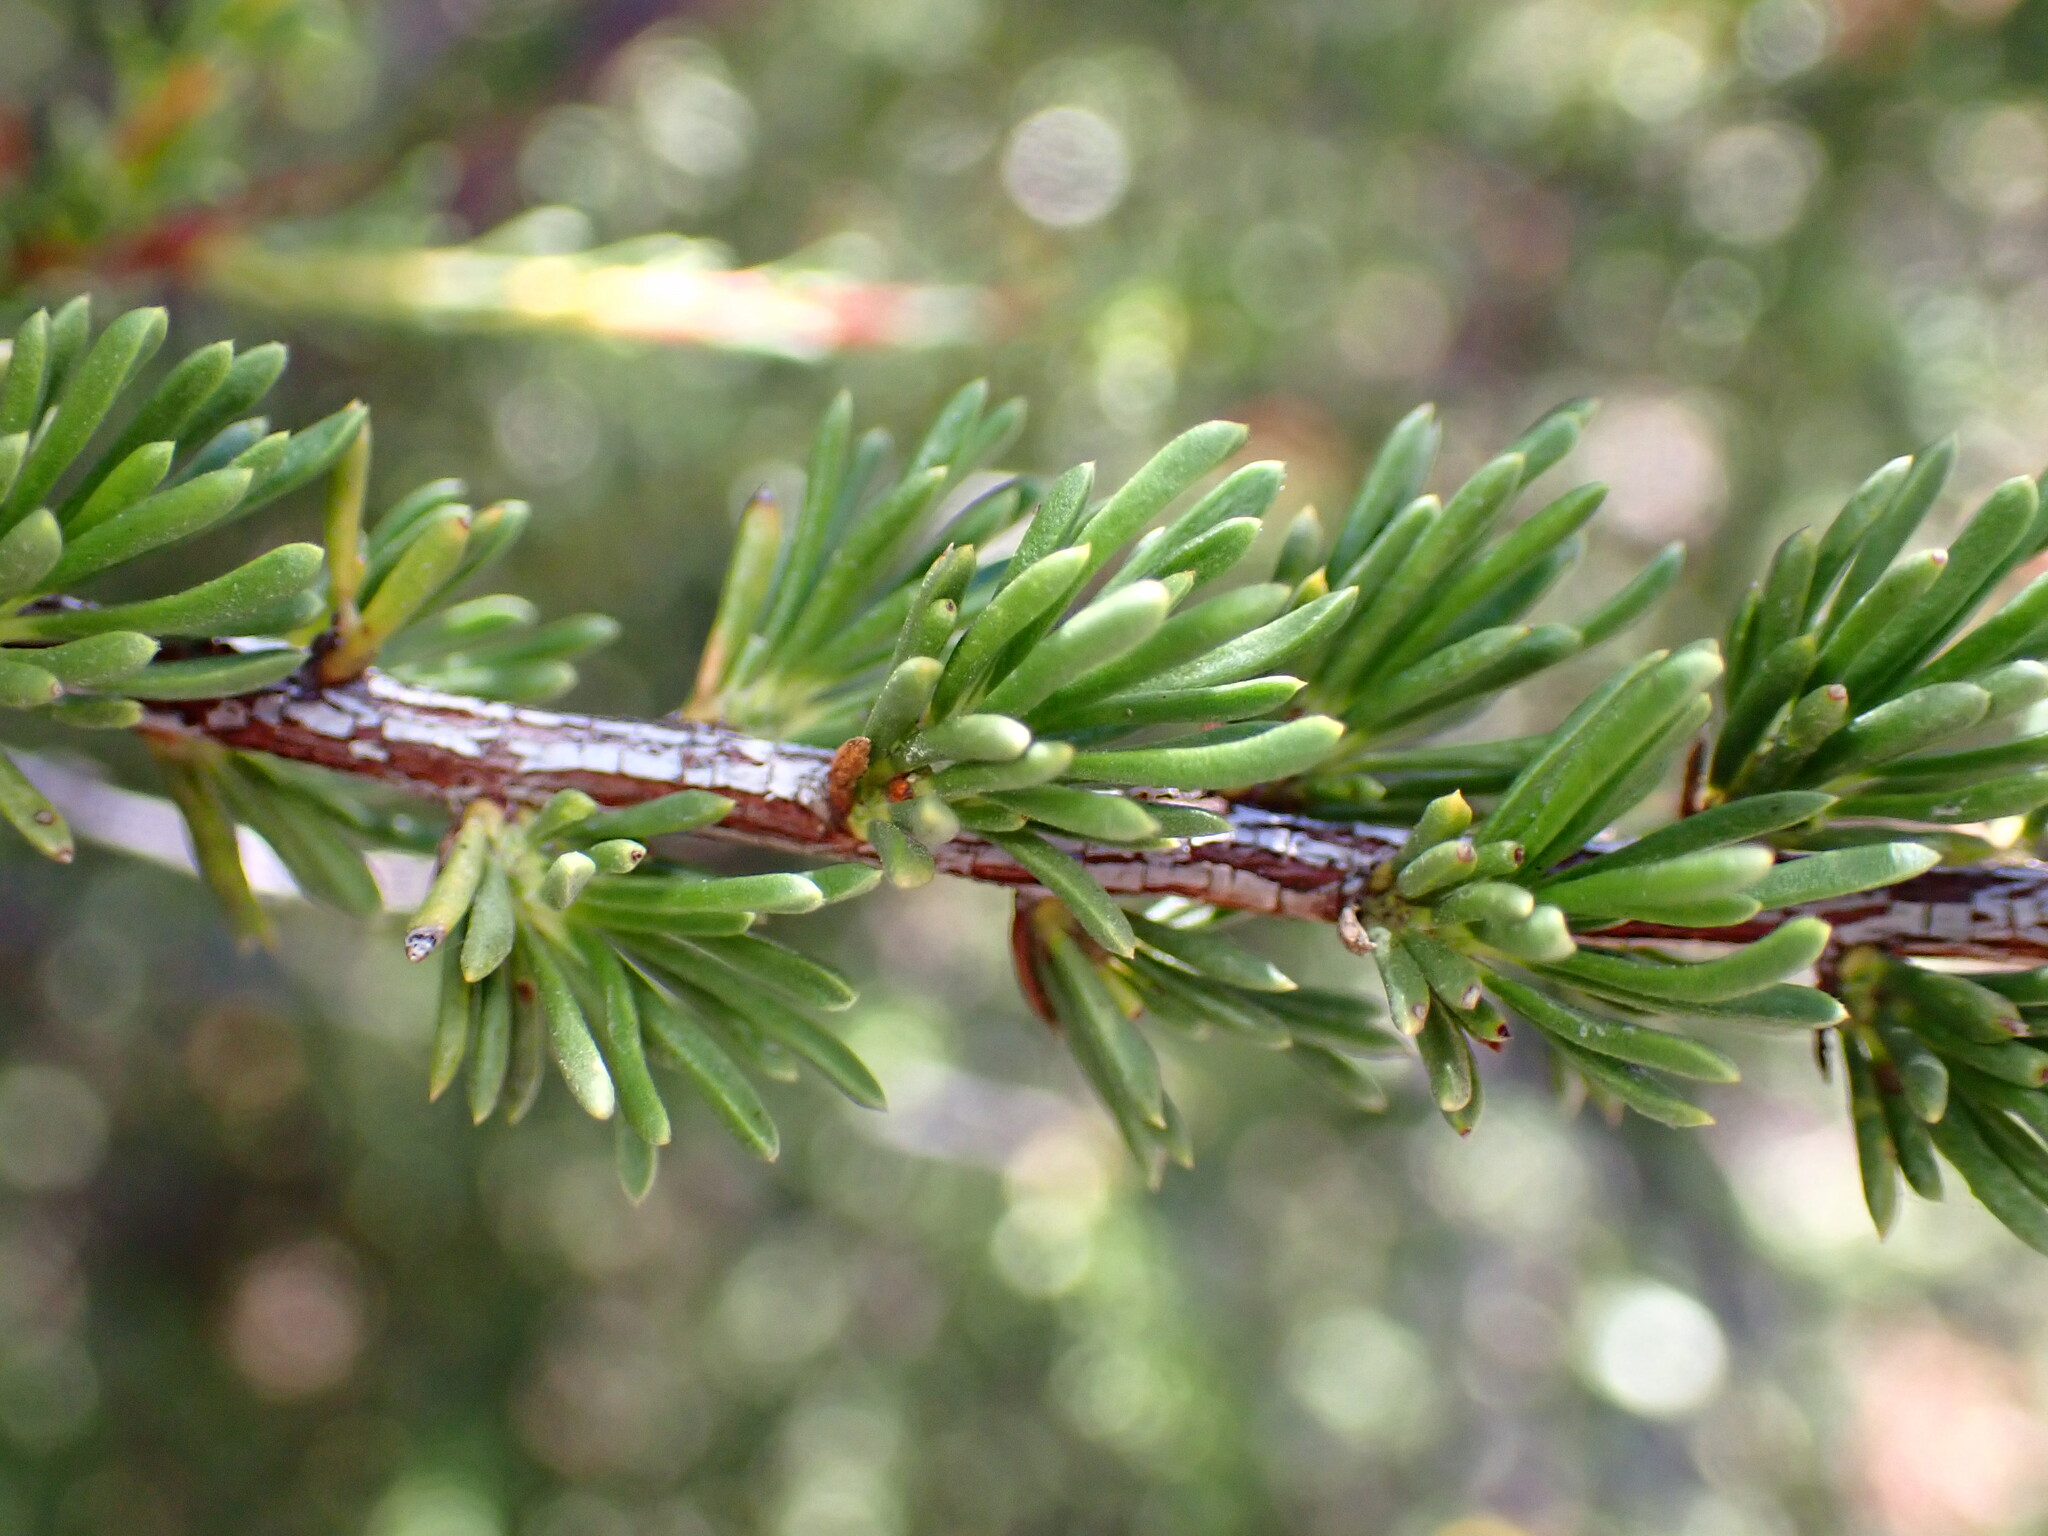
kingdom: Plantae
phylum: Tracheophyta
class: Magnoliopsida
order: Rosales
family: Rosaceae
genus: Adenostoma
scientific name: Adenostoma fasciculatum
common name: Chamise
